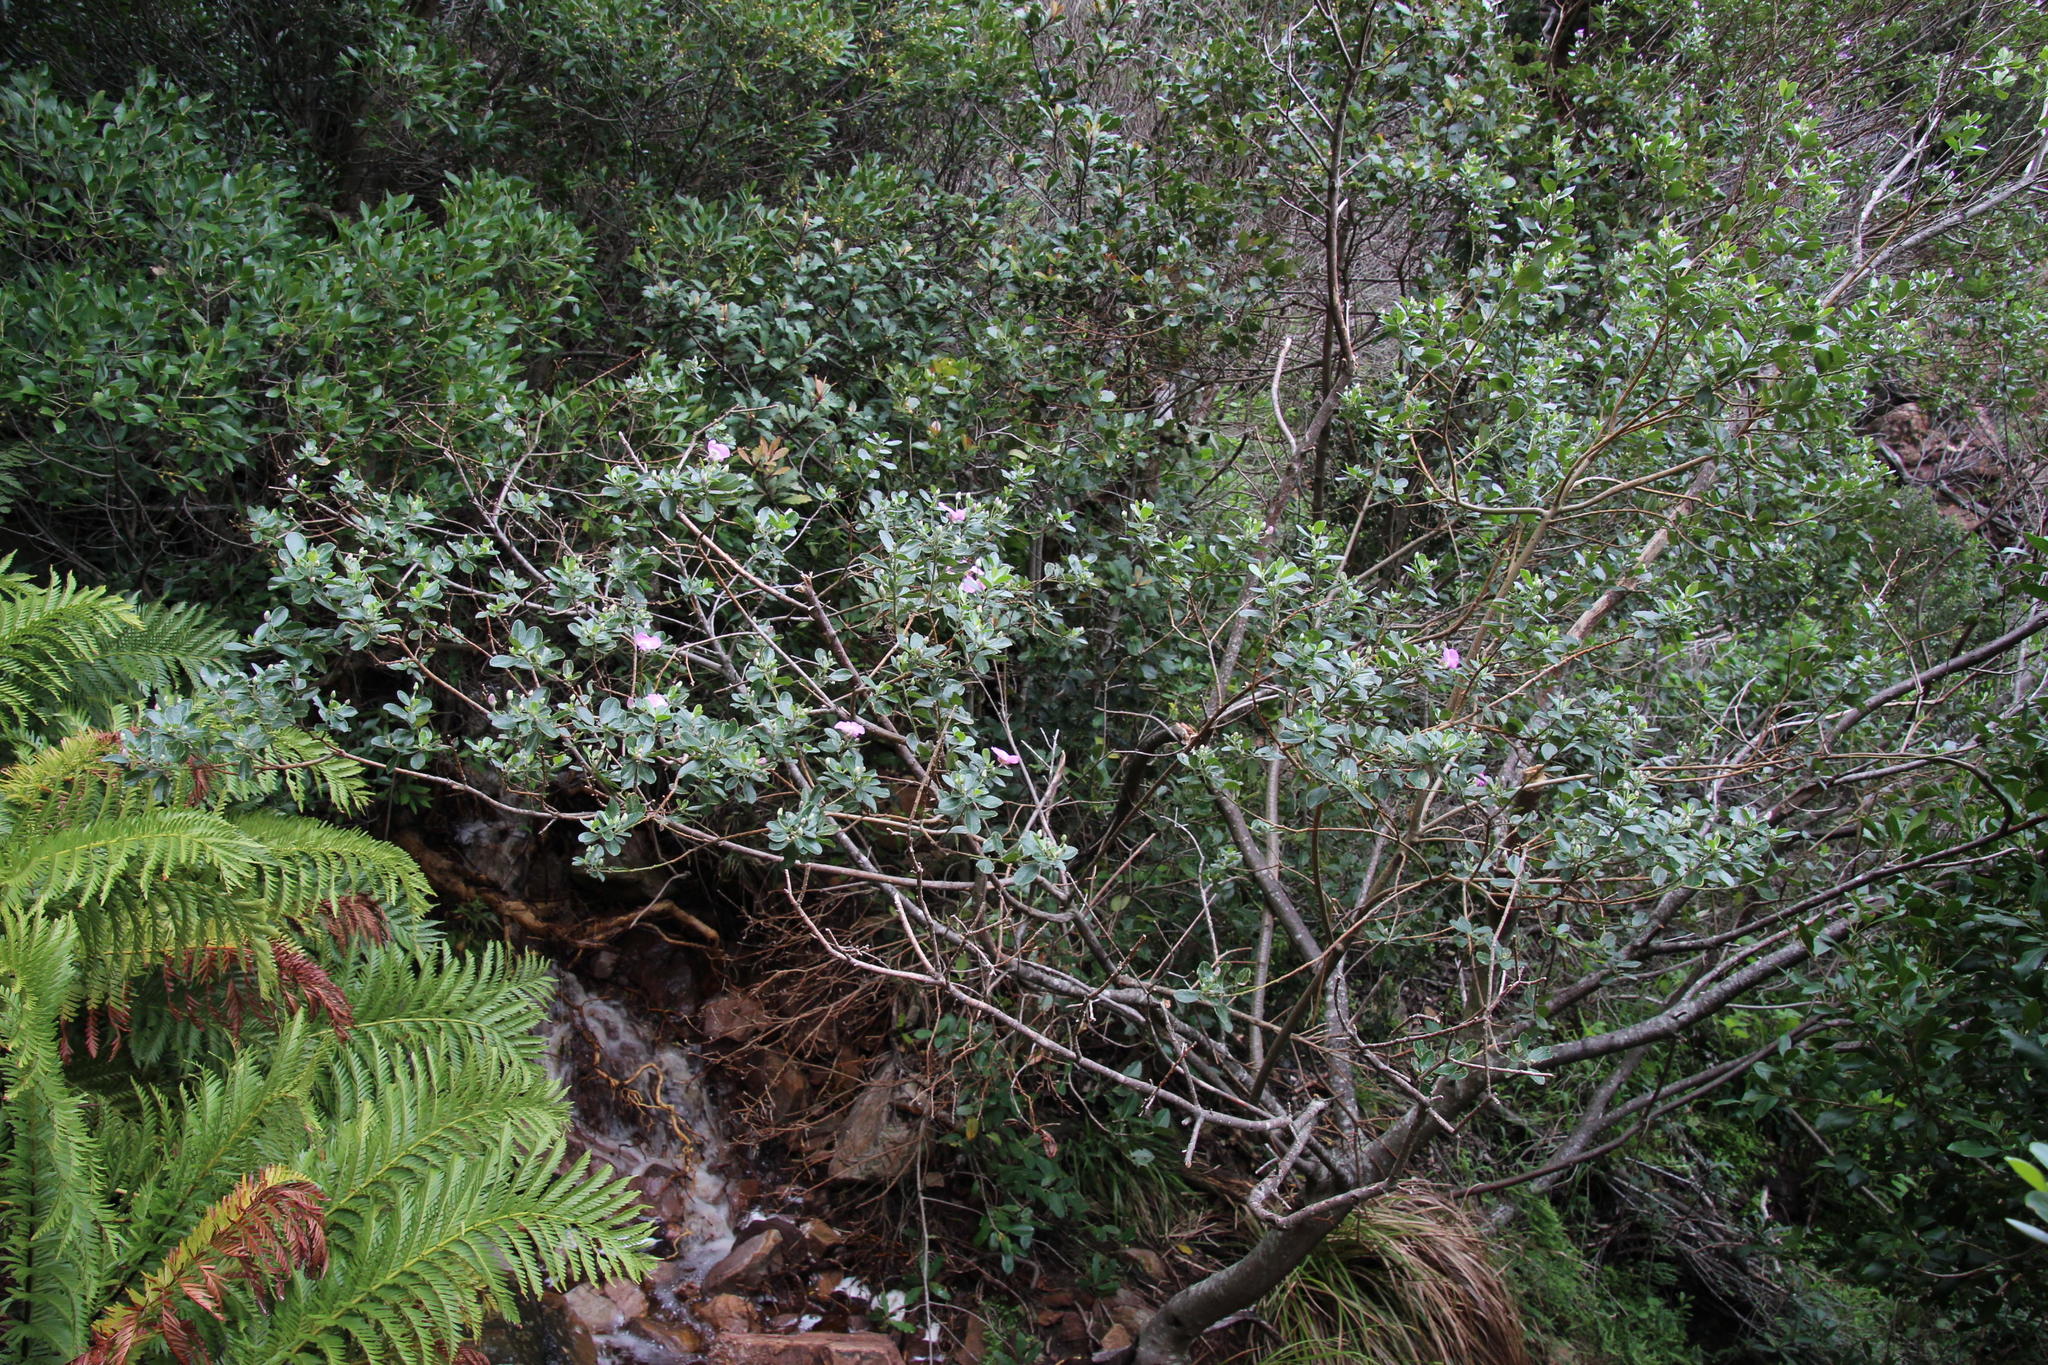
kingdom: Plantae
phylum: Tracheophyta
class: Magnoliopsida
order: Fabales
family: Fabaceae
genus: Podalyria
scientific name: Podalyria calyptrata
